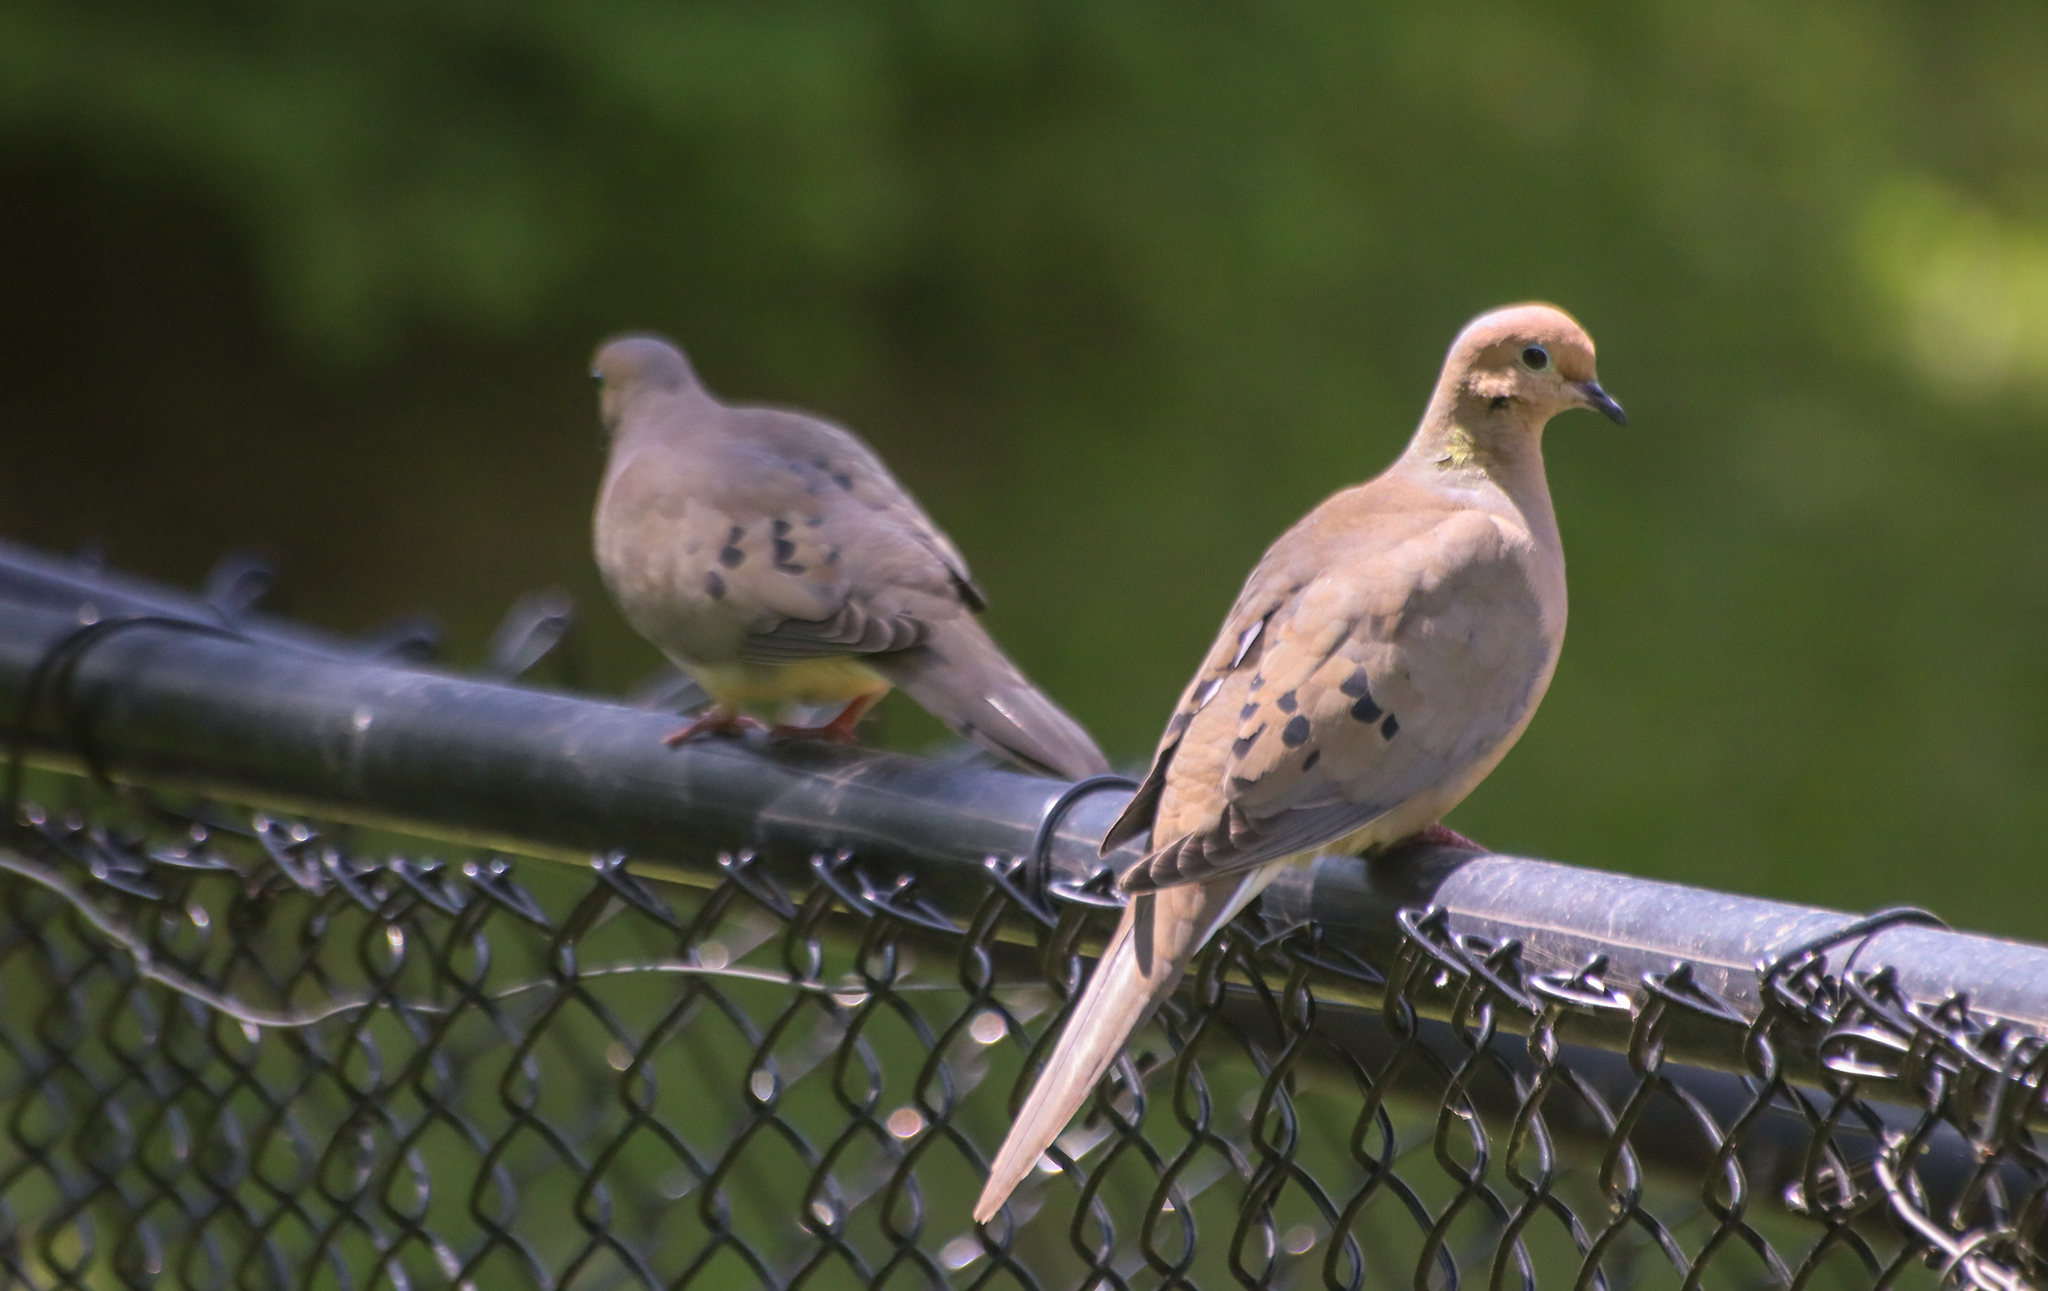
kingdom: Animalia
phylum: Chordata
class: Aves
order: Columbiformes
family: Columbidae
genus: Zenaida
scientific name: Zenaida macroura
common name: Mourning dove
